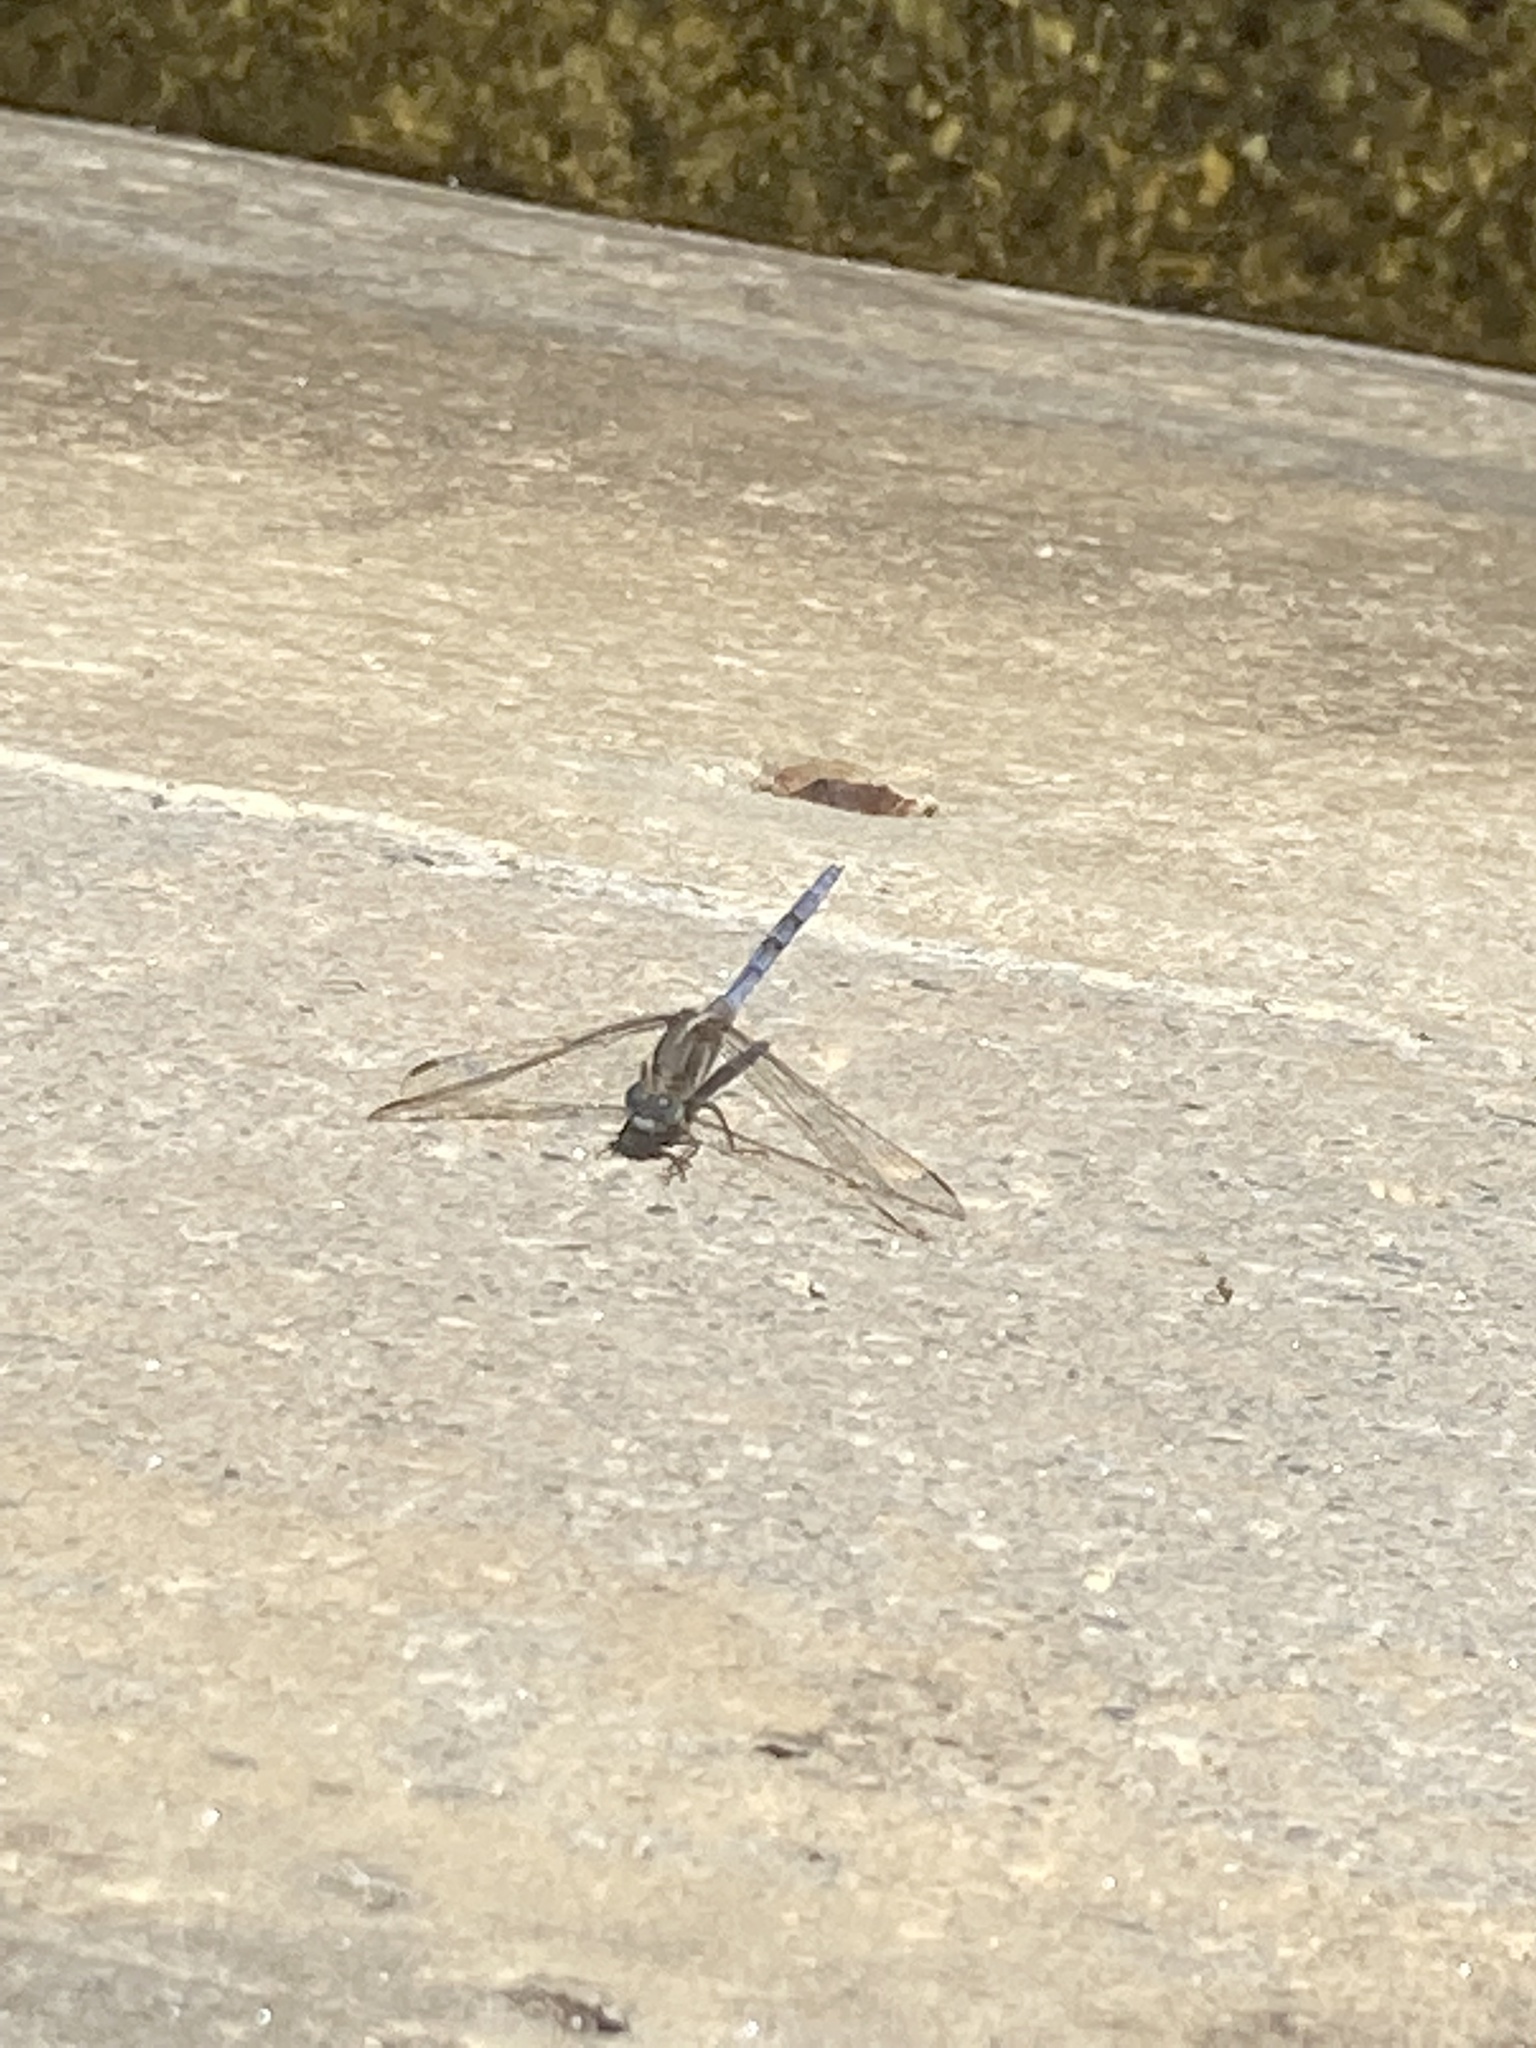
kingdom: Animalia
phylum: Arthropoda
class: Insecta
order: Odonata
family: Libellulidae
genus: Orthetrum
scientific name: Orthetrum chrysostigma
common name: Epaulet skimmer
